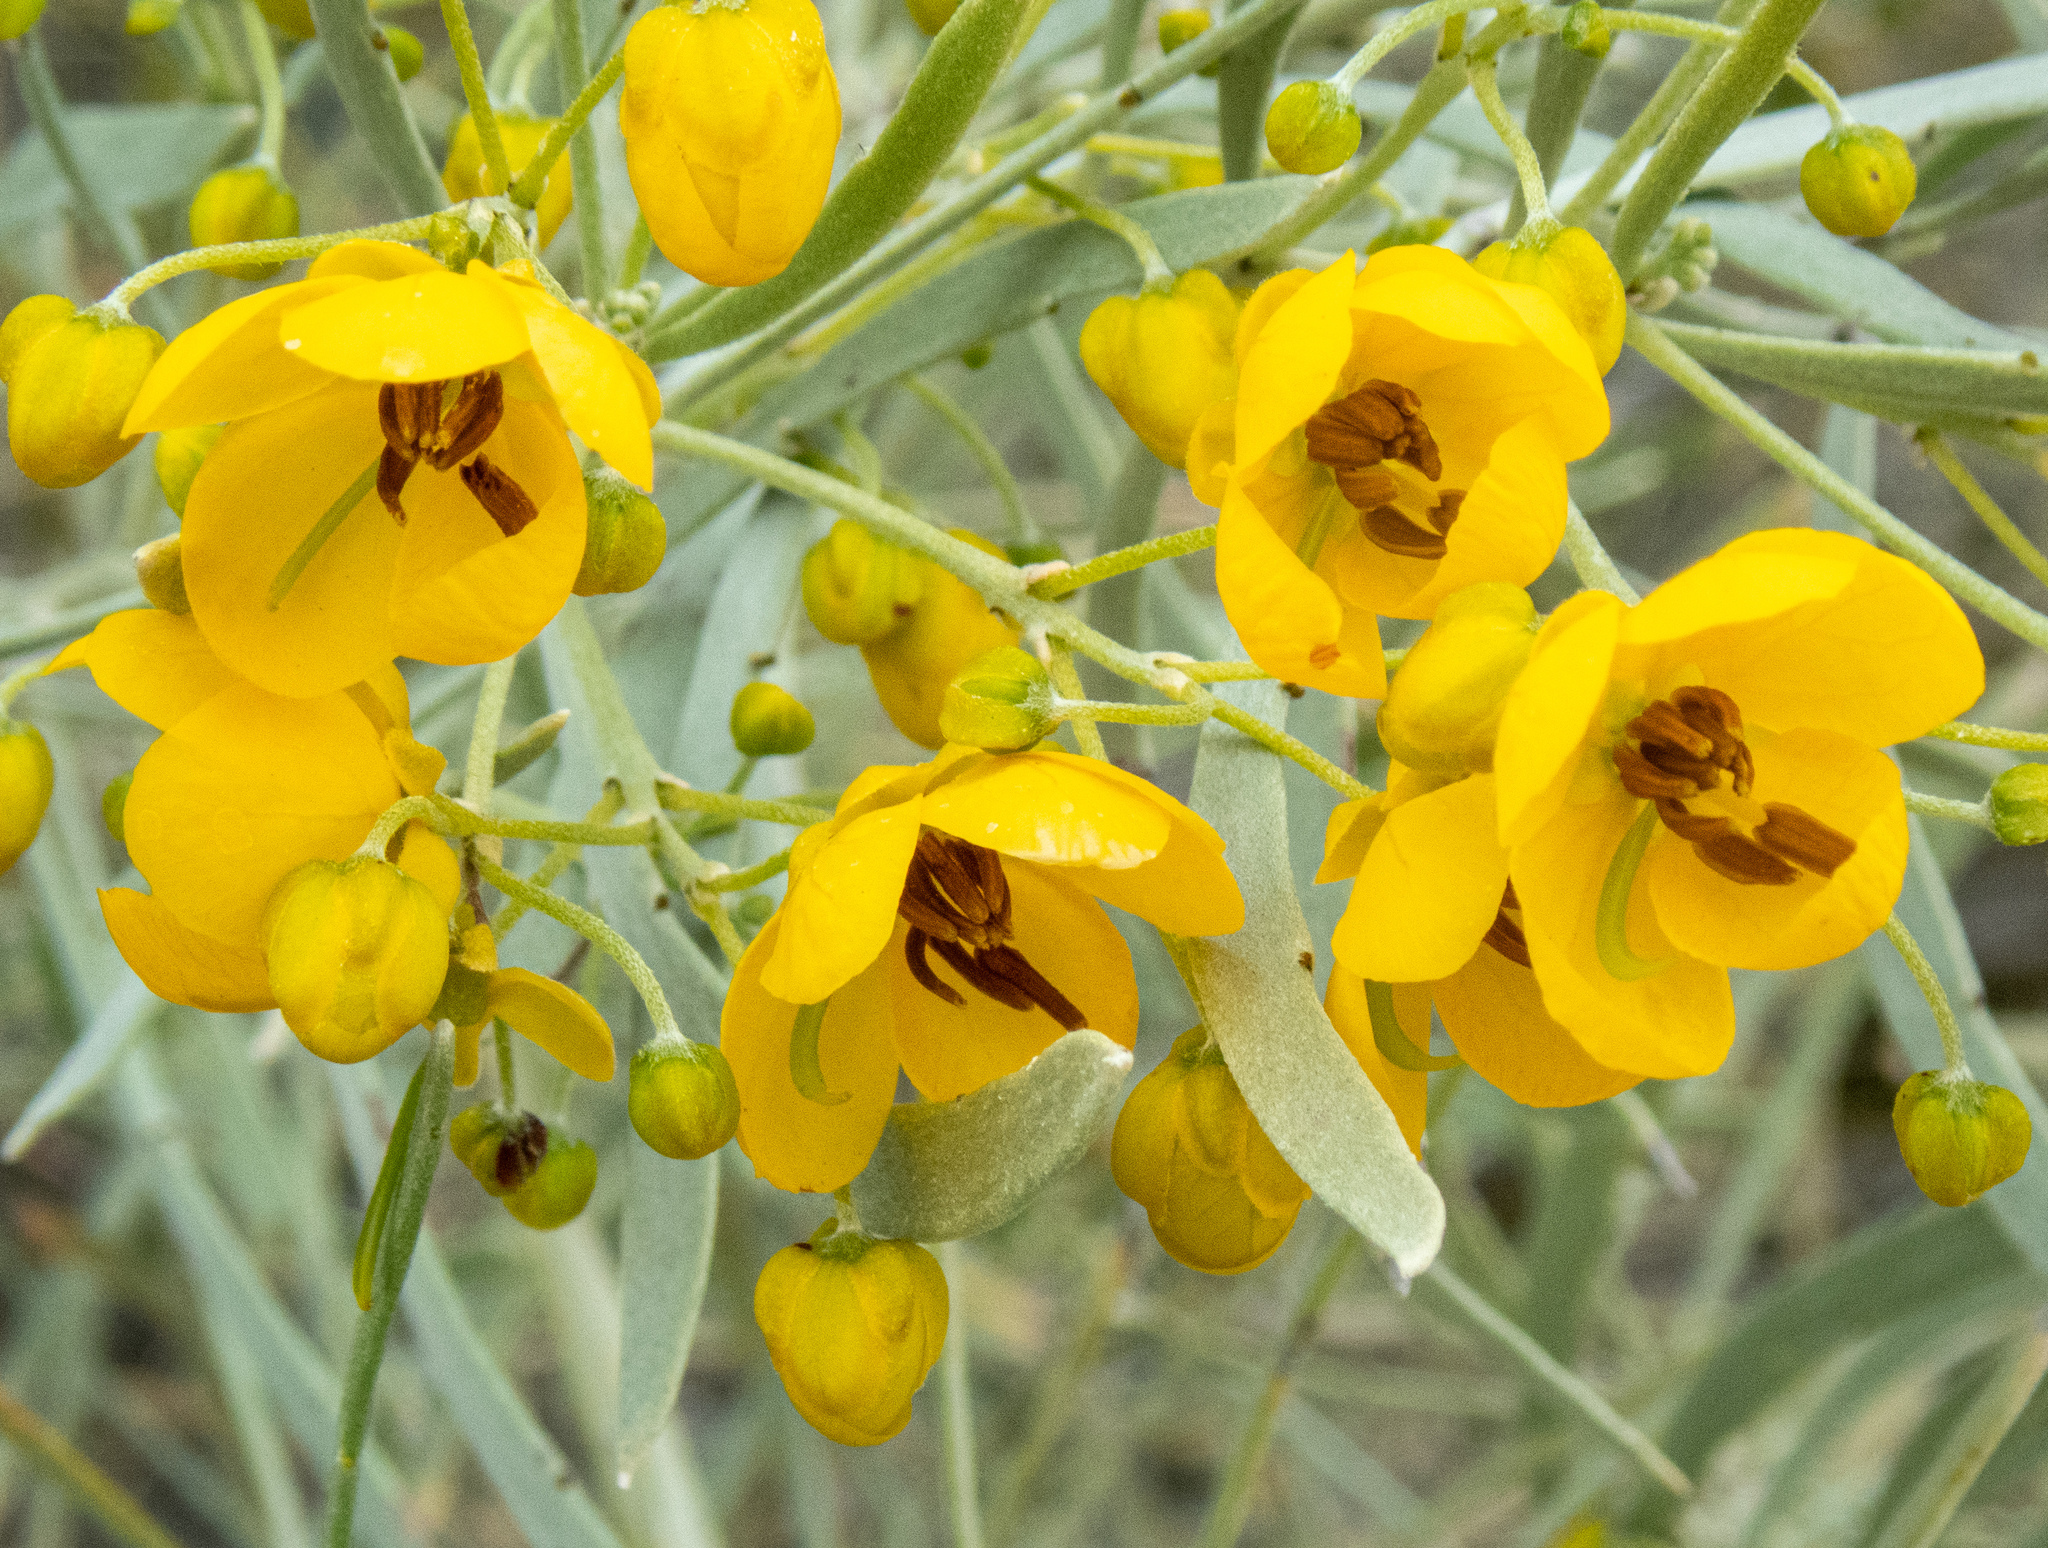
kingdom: Plantae
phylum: Tracheophyta
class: Magnoliopsida
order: Fabales
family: Fabaceae
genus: Senna
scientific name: Senna artemisioides
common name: Burnt-leaved acacia
